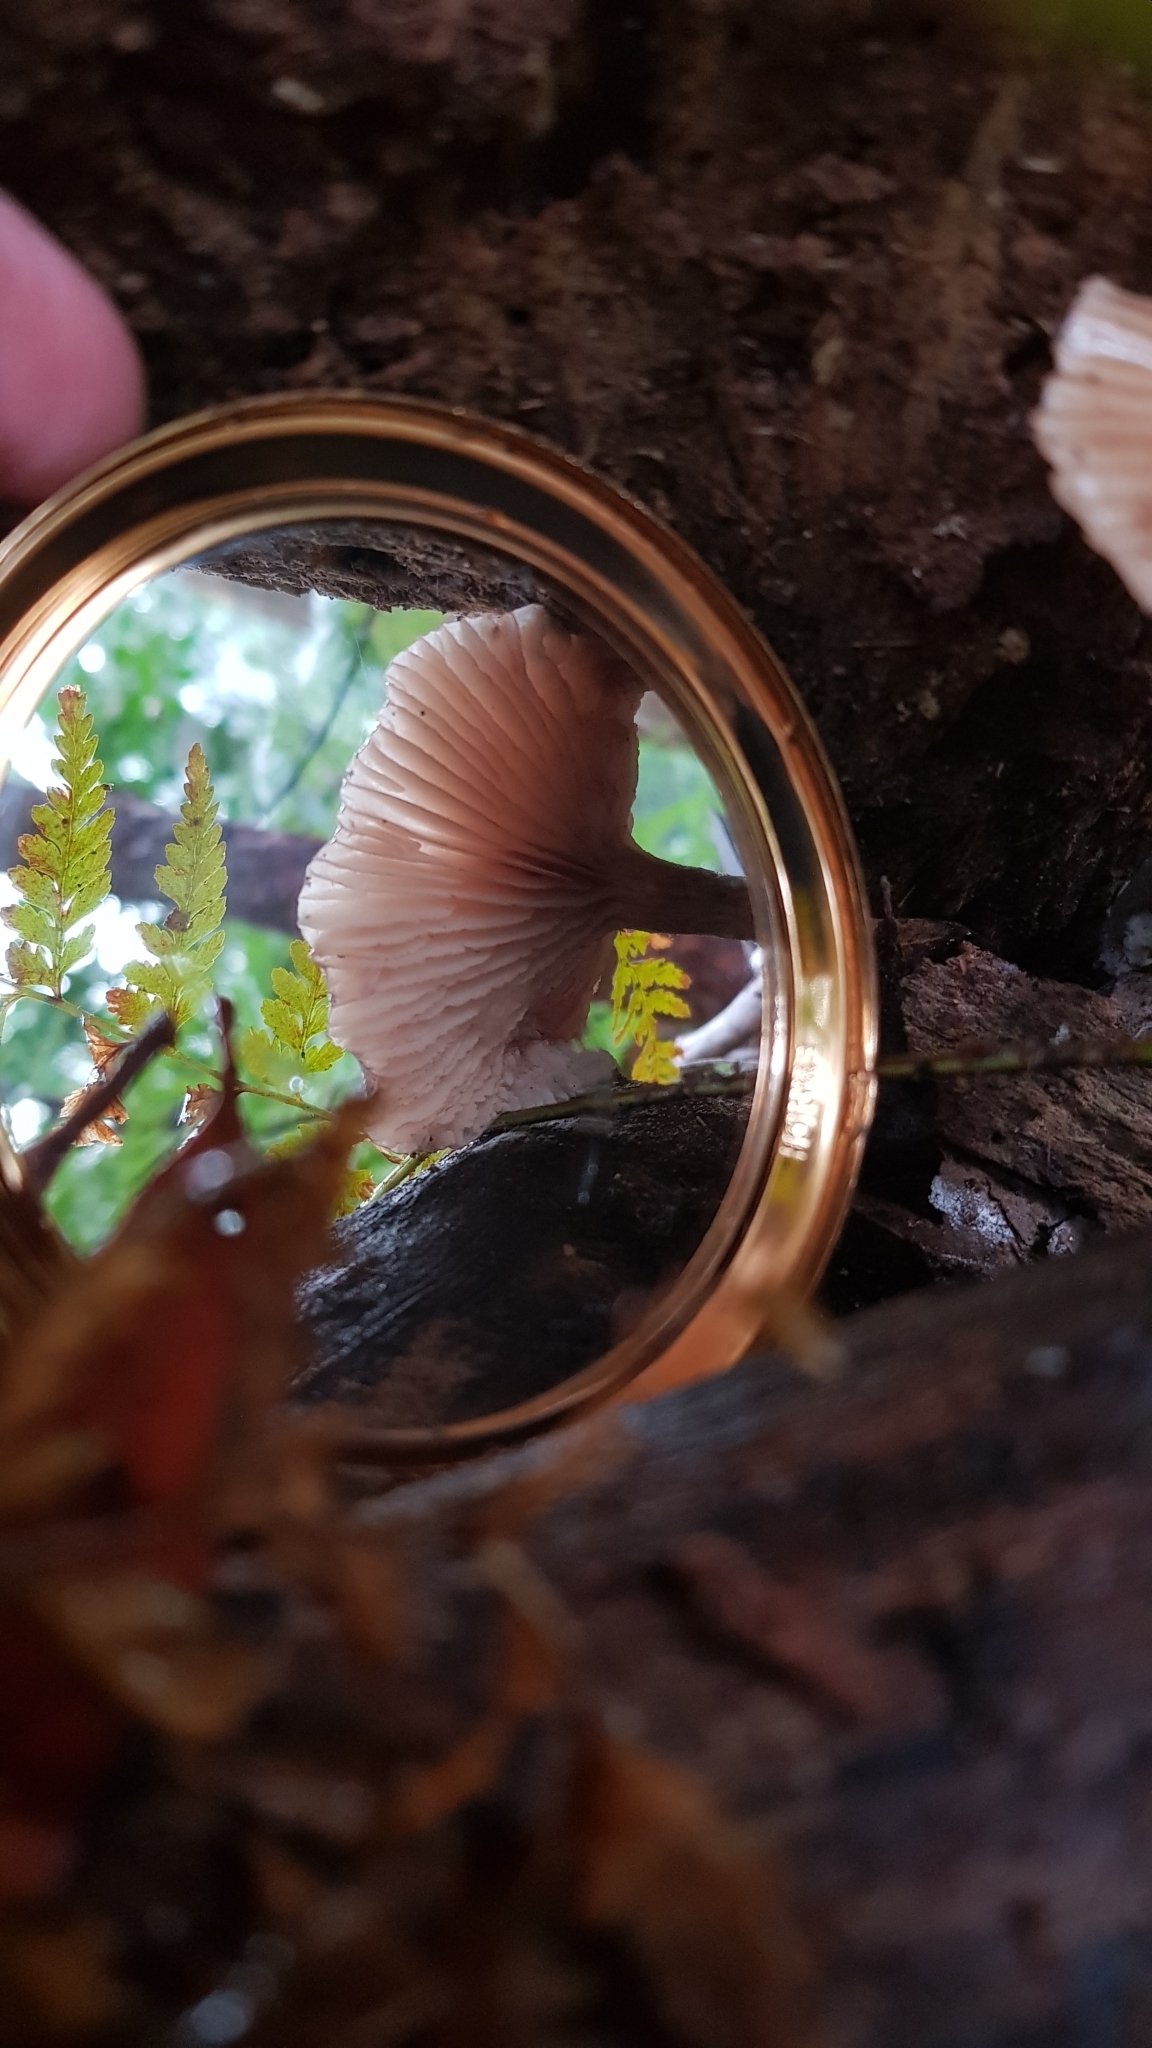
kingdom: Fungi
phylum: Basidiomycota
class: Agaricomycetes
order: Agaricales
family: Physalacriaceae
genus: Armillaria
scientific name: Armillaria novae-zelandiae
